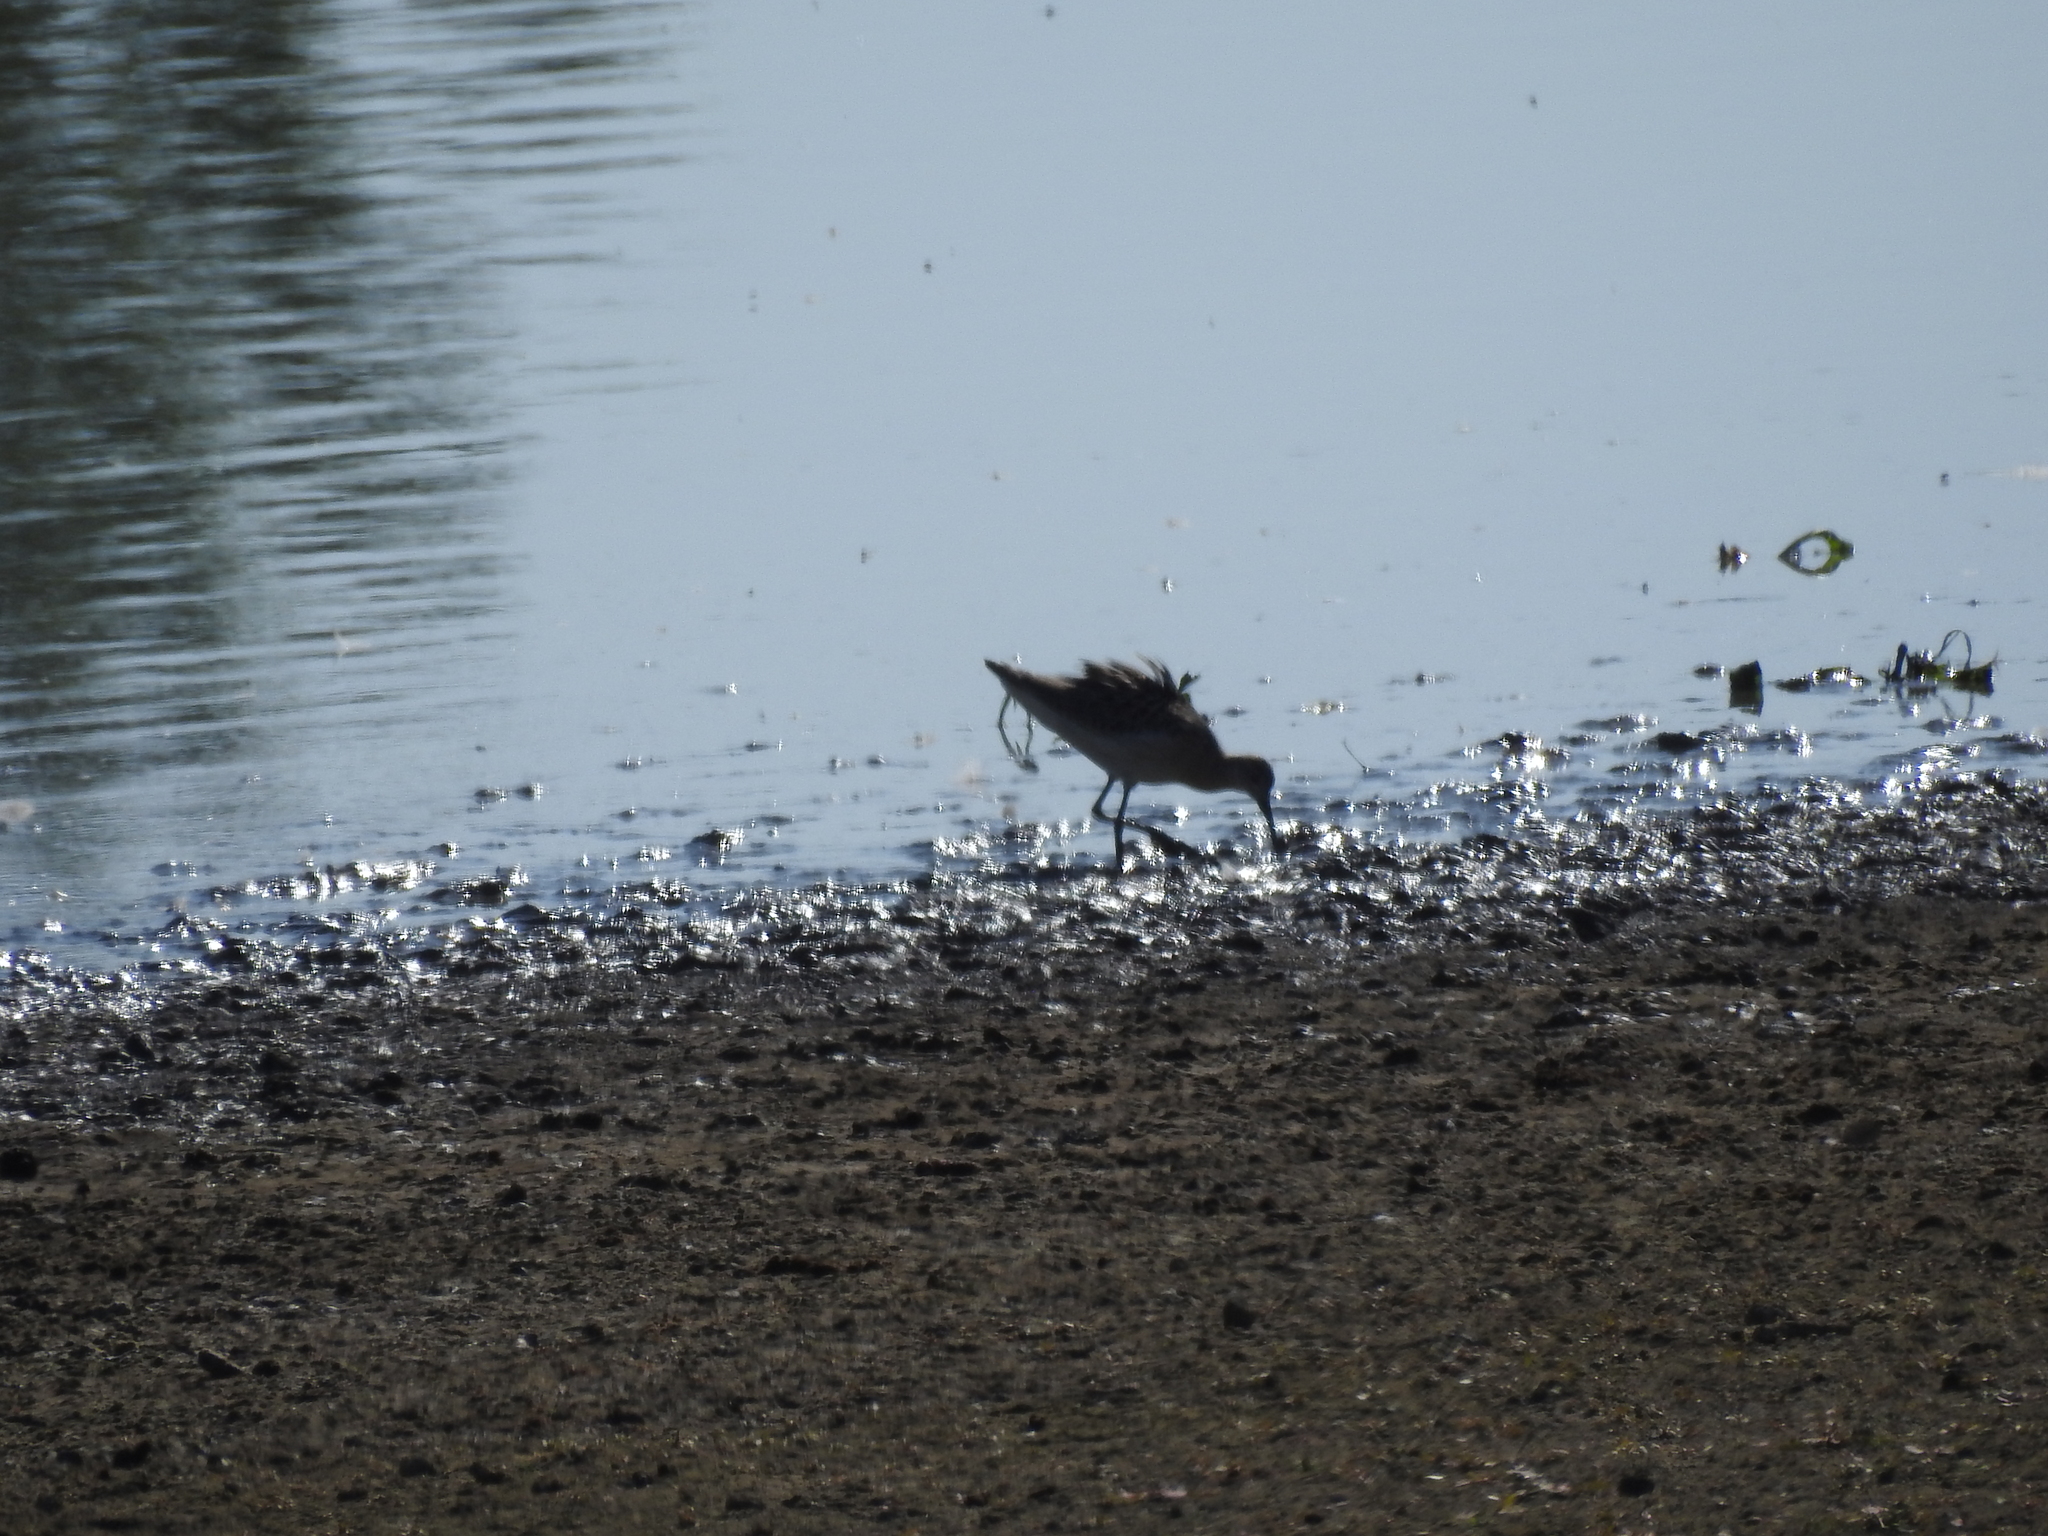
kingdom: Animalia
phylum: Chordata
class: Aves
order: Charadriiformes
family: Scolopacidae
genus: Calidris
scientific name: Calidris pugnax
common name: Ruff
